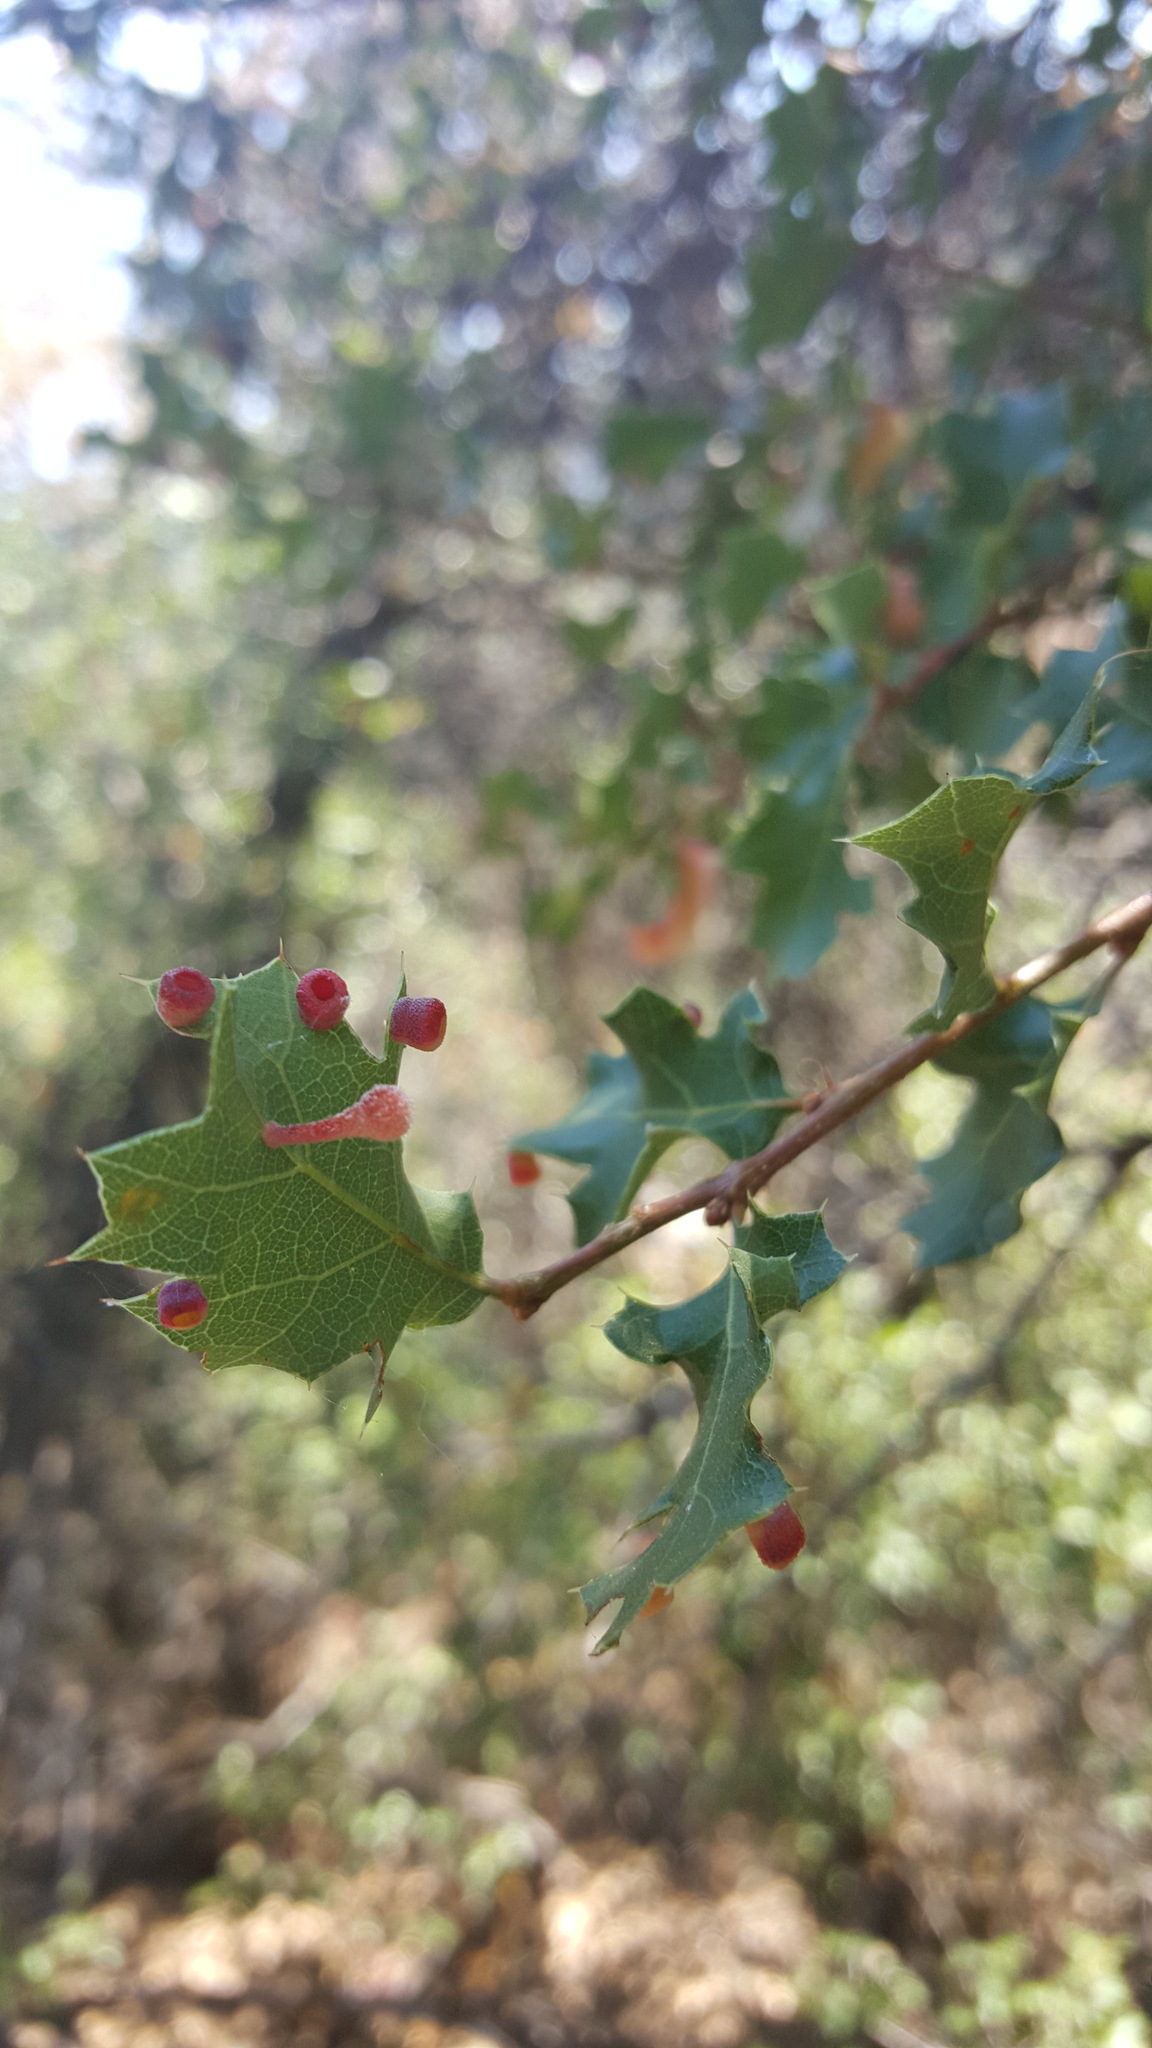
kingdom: Animalia
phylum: Arthropoda
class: Insecta
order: Hymenoptera
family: Cynipidae
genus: Trigonaspis
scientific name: Trigonaspis
